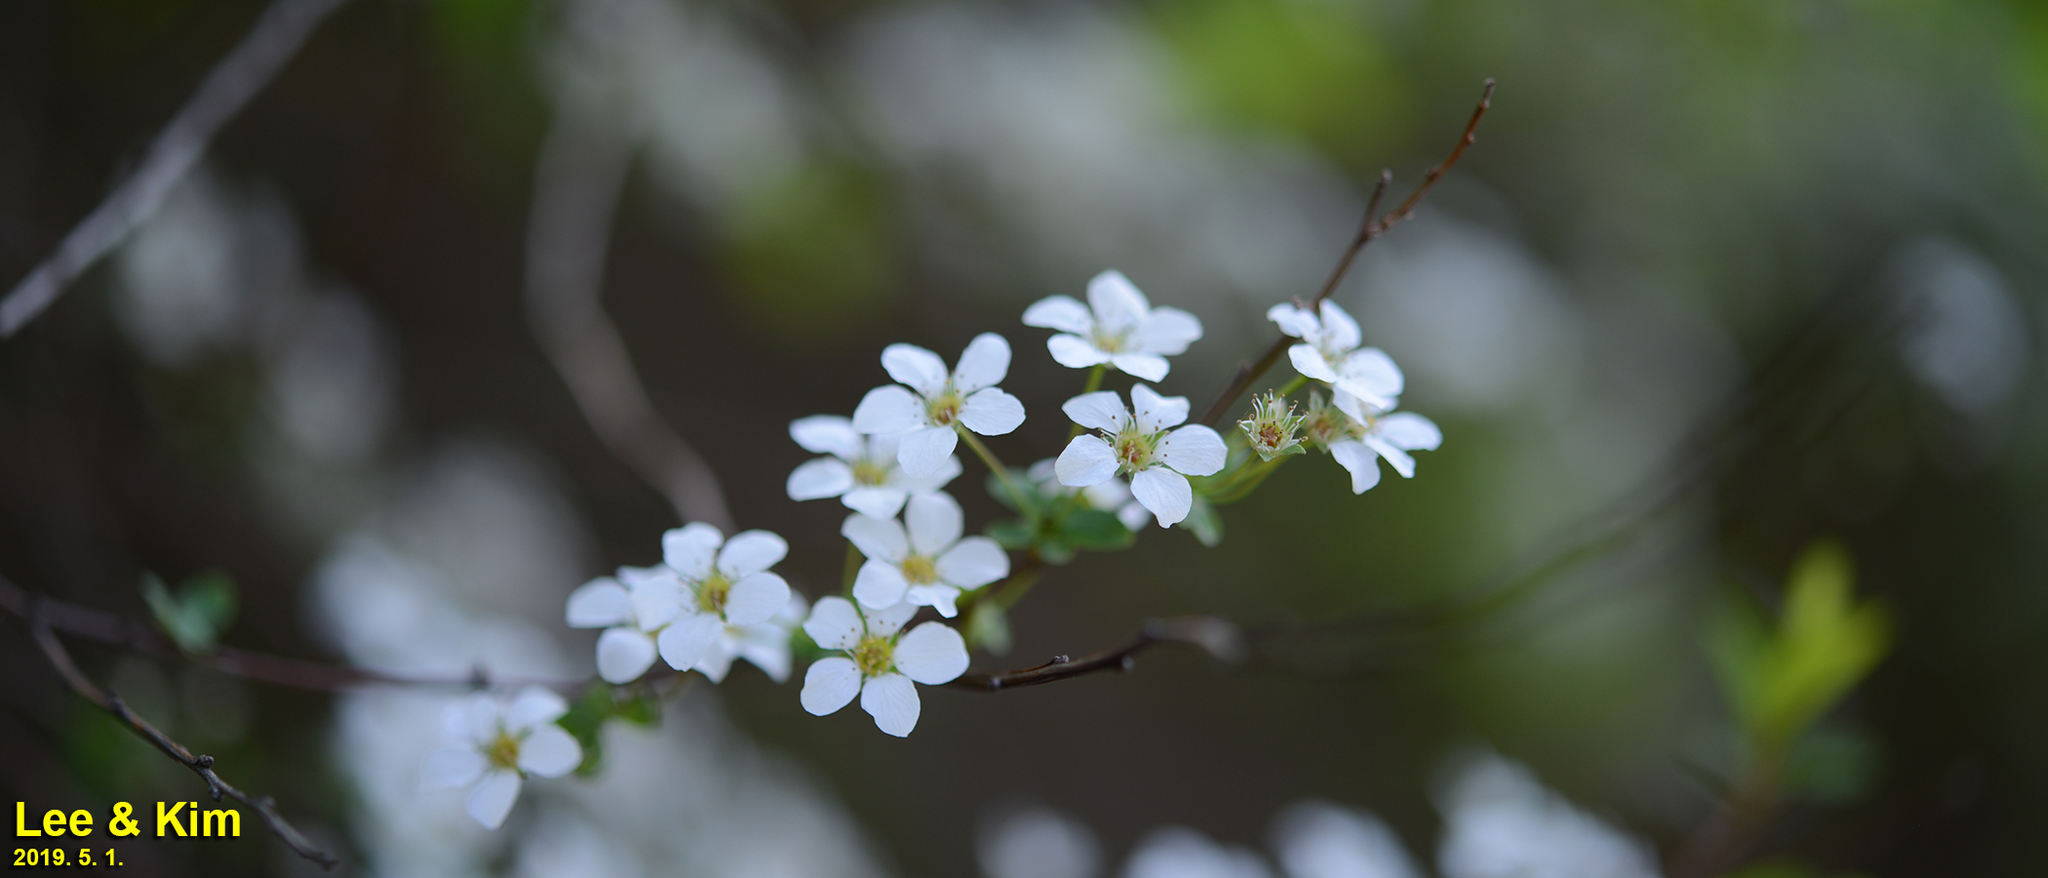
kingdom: Plantae
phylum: Tracheophyta
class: Magnoliopsida
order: Rosales
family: Rosaceae
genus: Spiraea
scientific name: Spiraea prunifolia
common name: Bridal-wreath spiraea
